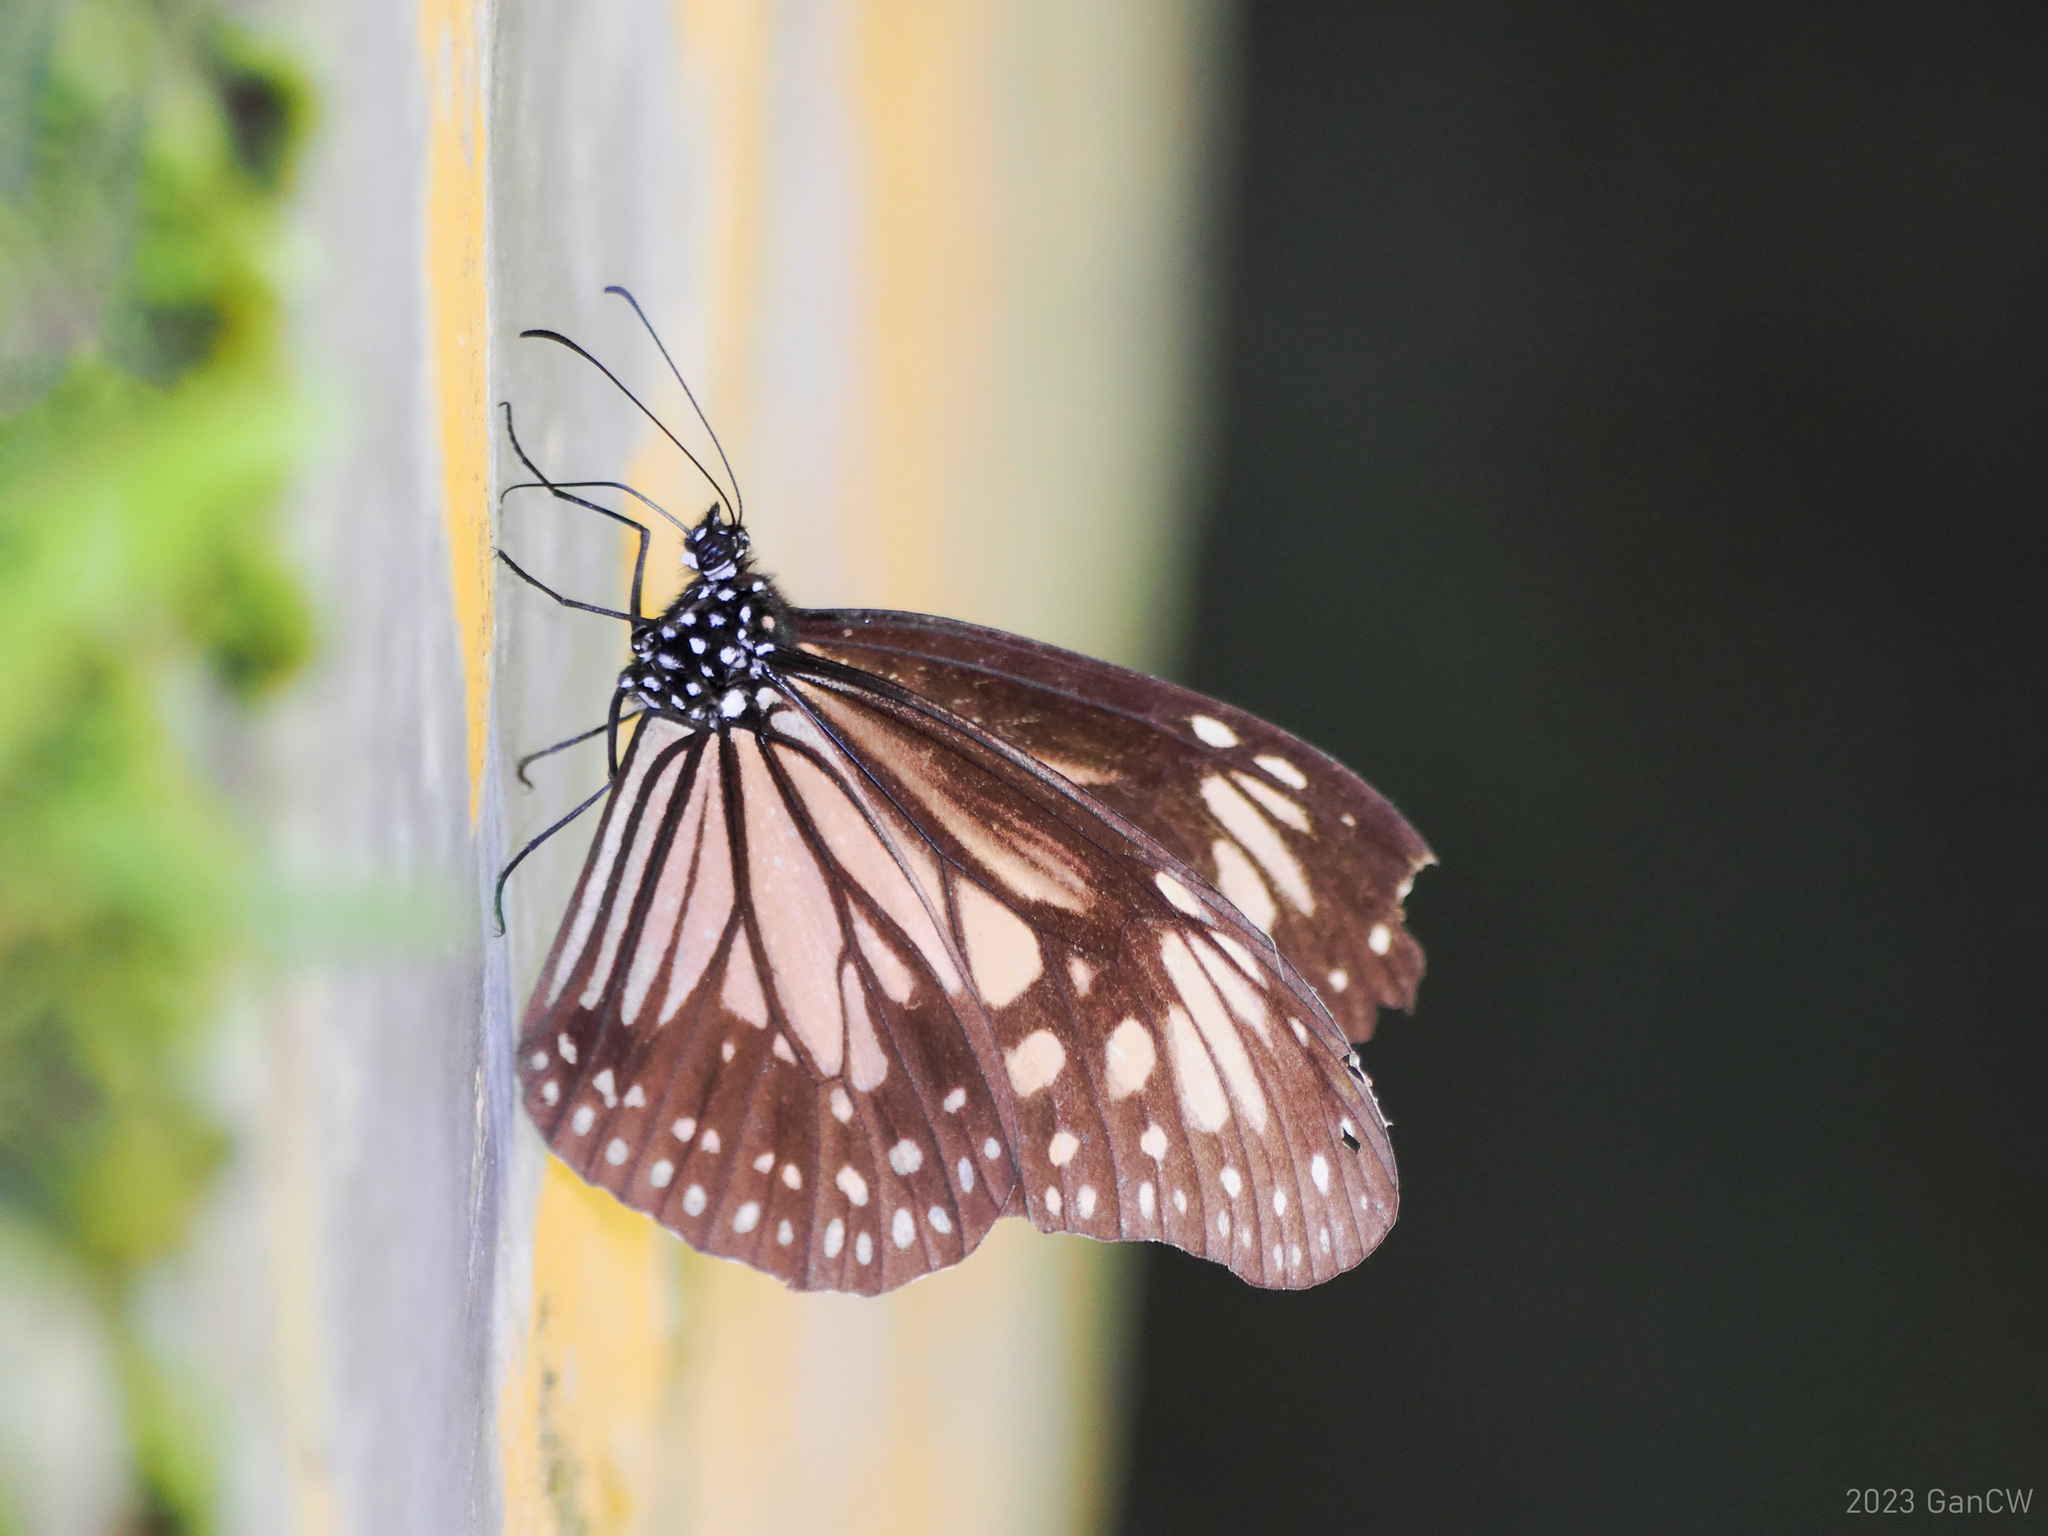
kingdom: Animalia
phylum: Arthropoda
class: Insecta
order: Lepidoptera
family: Nymphalidae
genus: Parantica
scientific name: Parantica menadensis
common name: Manado yellow tiger
